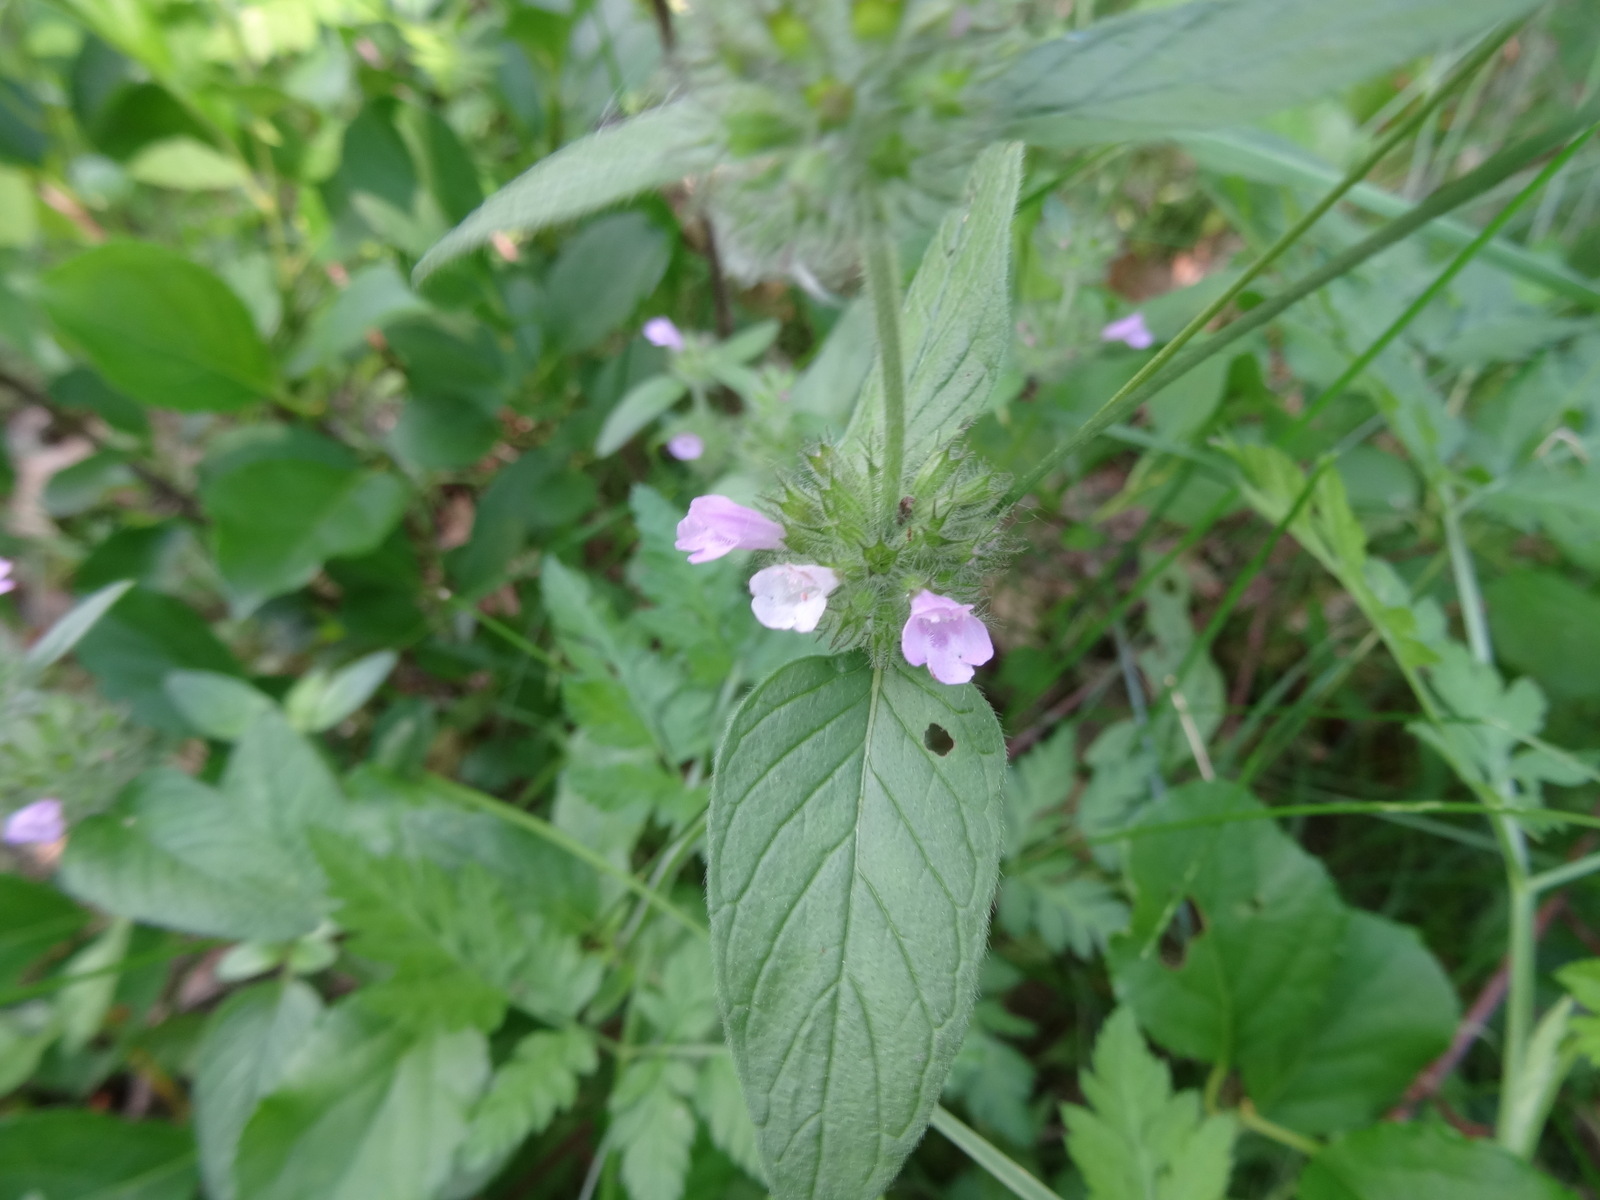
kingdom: Plantae
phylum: Tracheophyta
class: Magnoliopsida
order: Lamiales
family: Lamiaceae
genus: Clinopodium
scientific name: Clinopodium vulgare
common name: Wild basil
